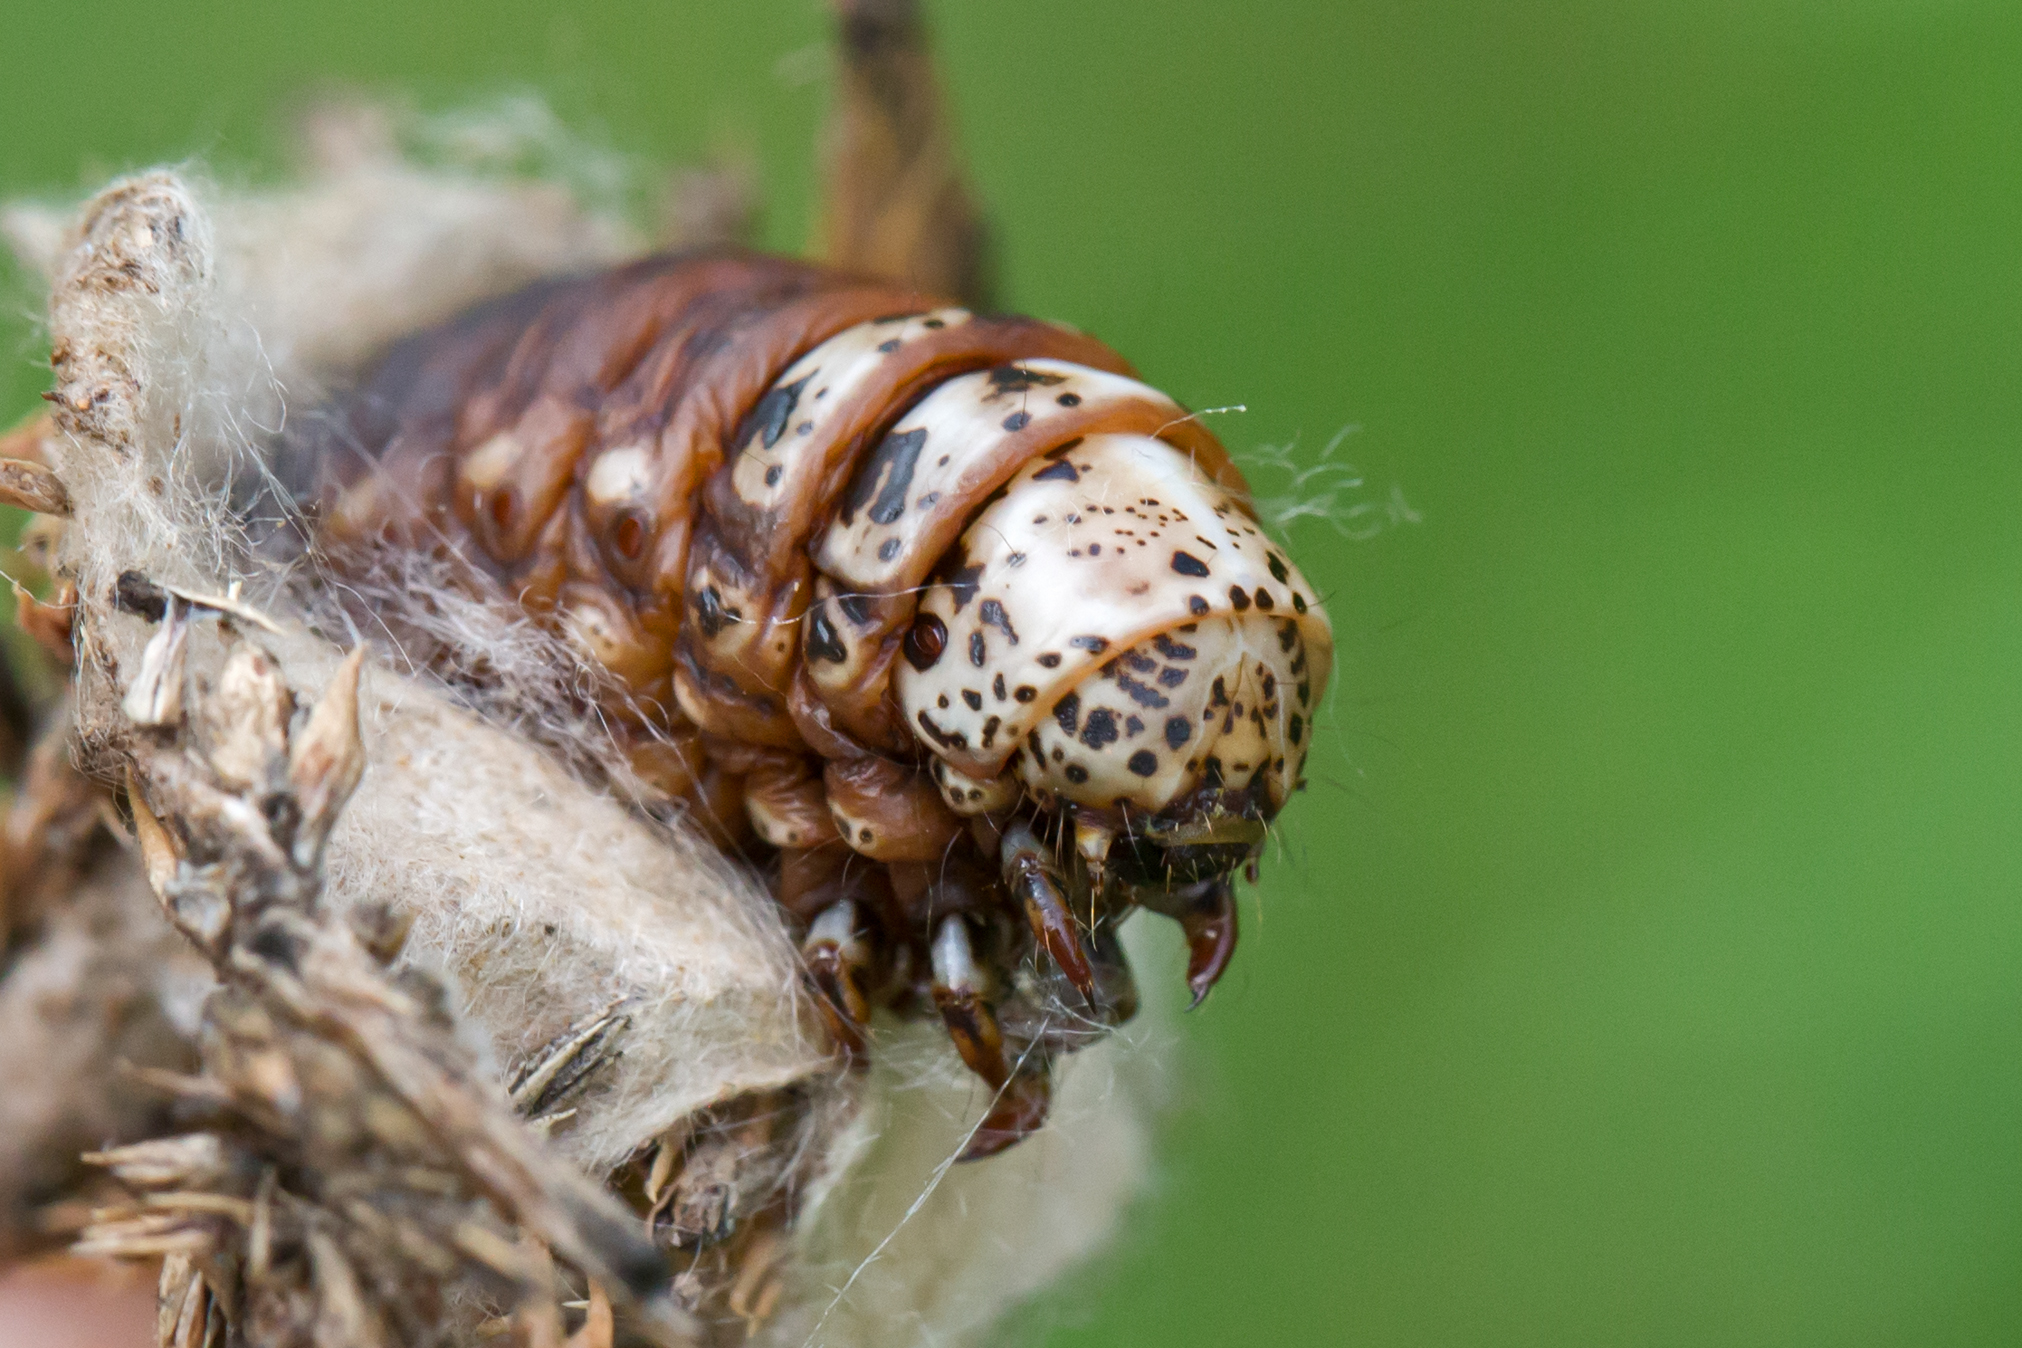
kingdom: Animalia
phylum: Arthropoda
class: Insecta
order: Lepidoptera
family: Psychidae
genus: Thyridopteryx
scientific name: Thyridopteryx ephemeraeformis
